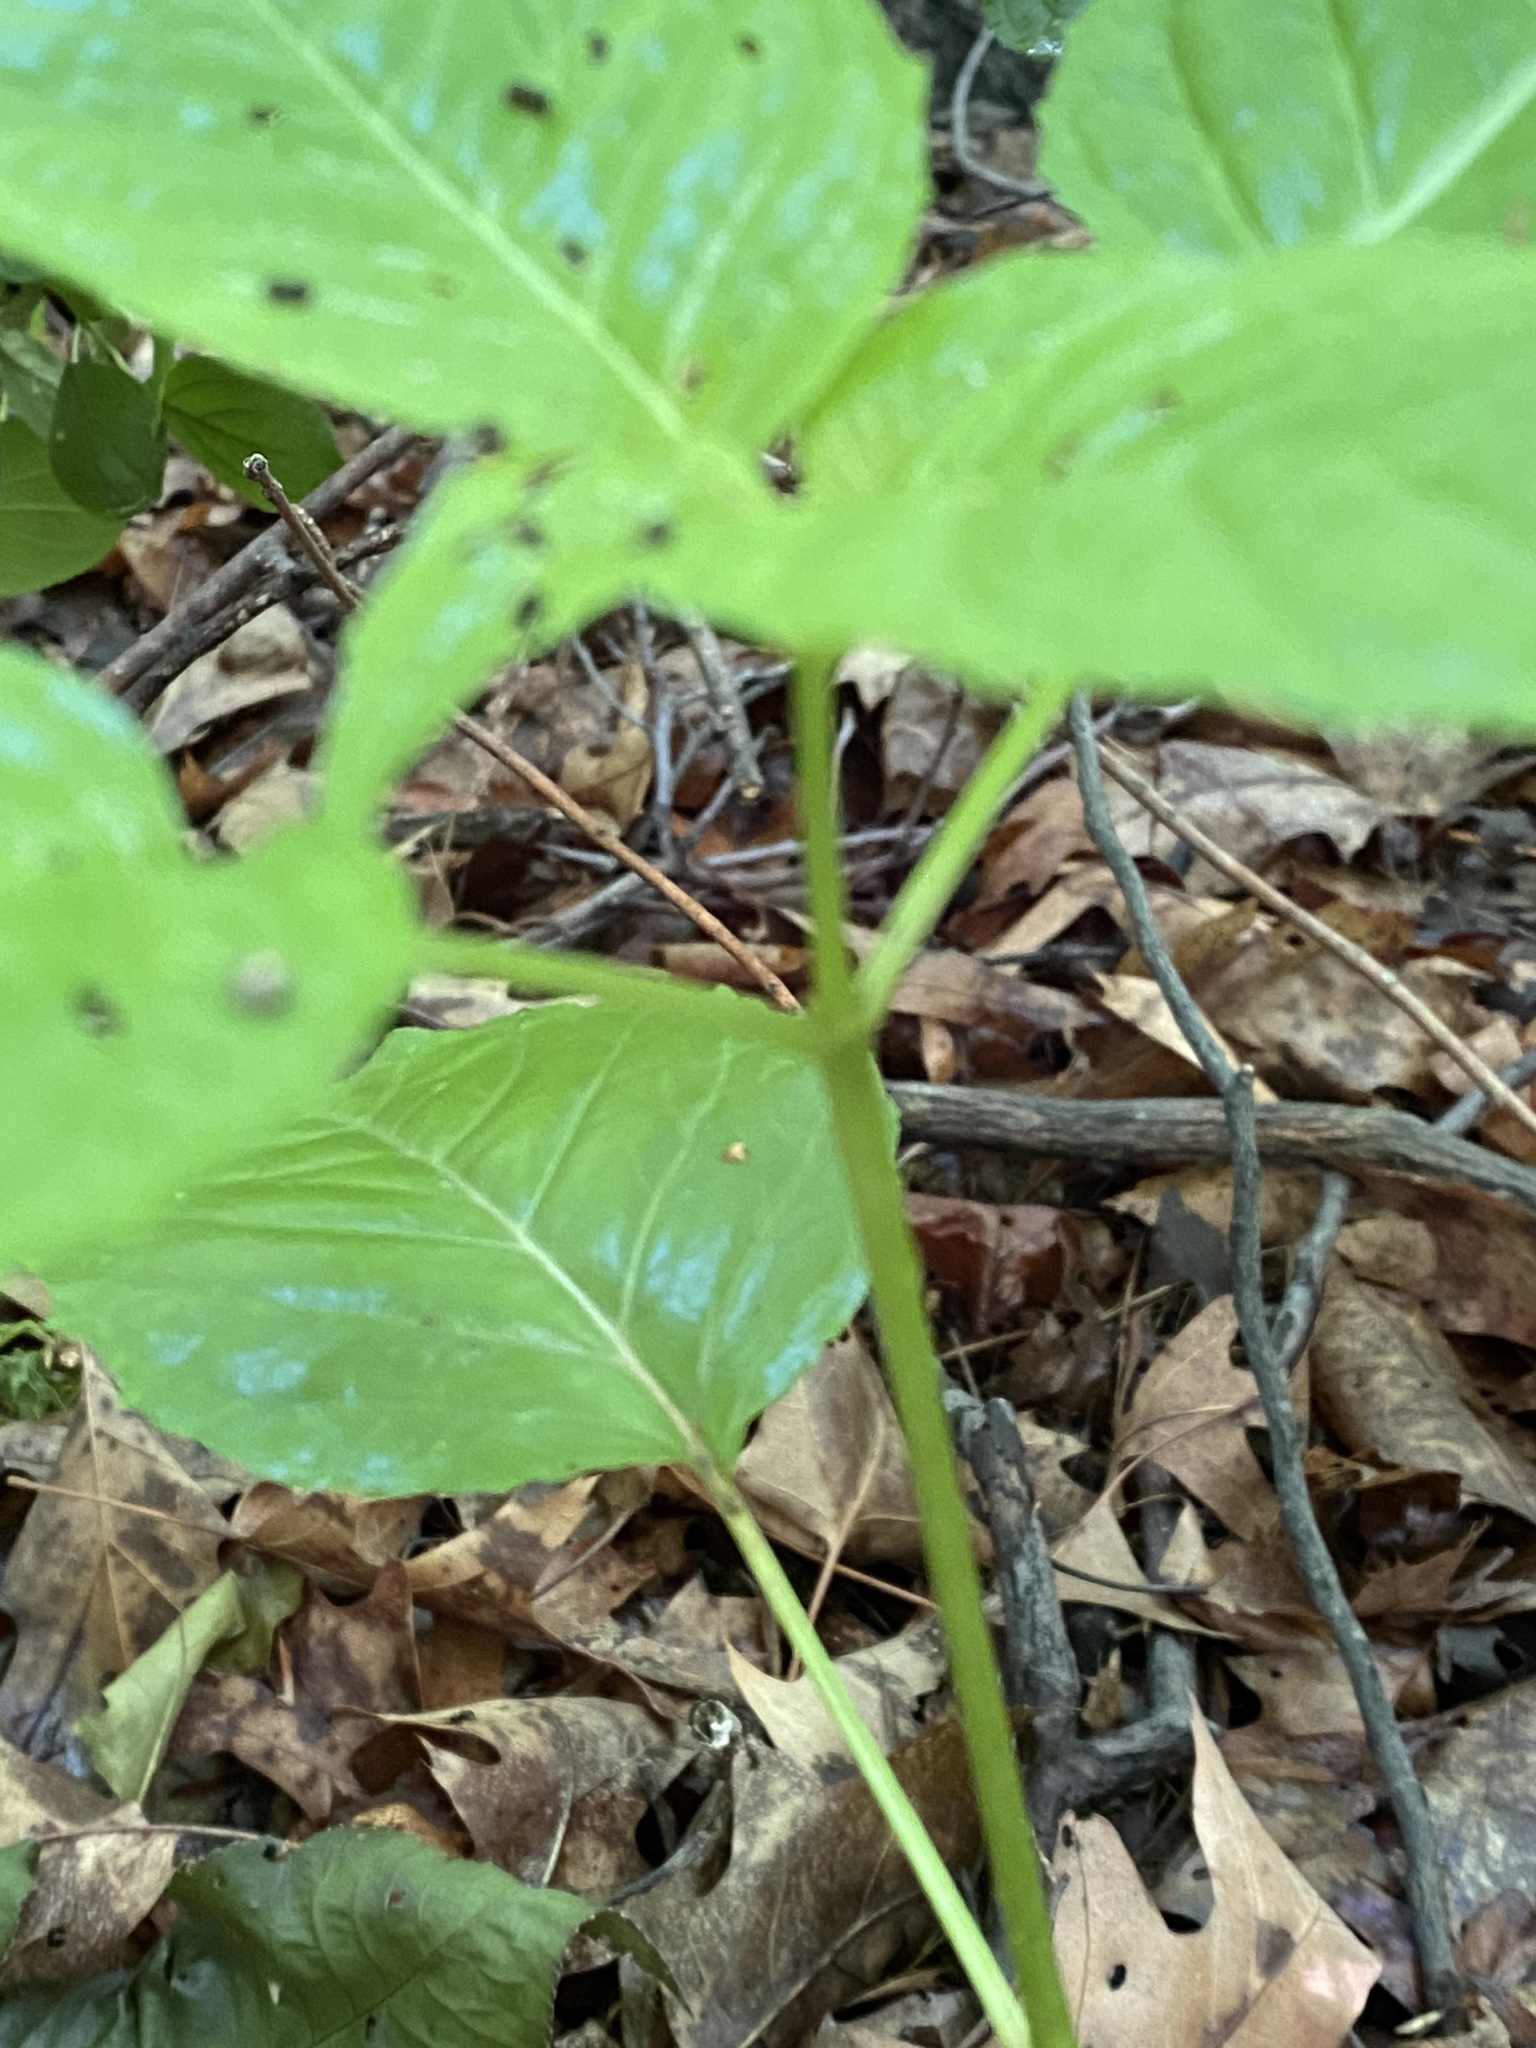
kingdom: Plantae
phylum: Tracheophyta
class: Magnoliopsida
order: Myrtales
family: Onagraceae
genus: Circaea
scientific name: Circaea canadensis
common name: Broad-leaved enchanter's nightshade
